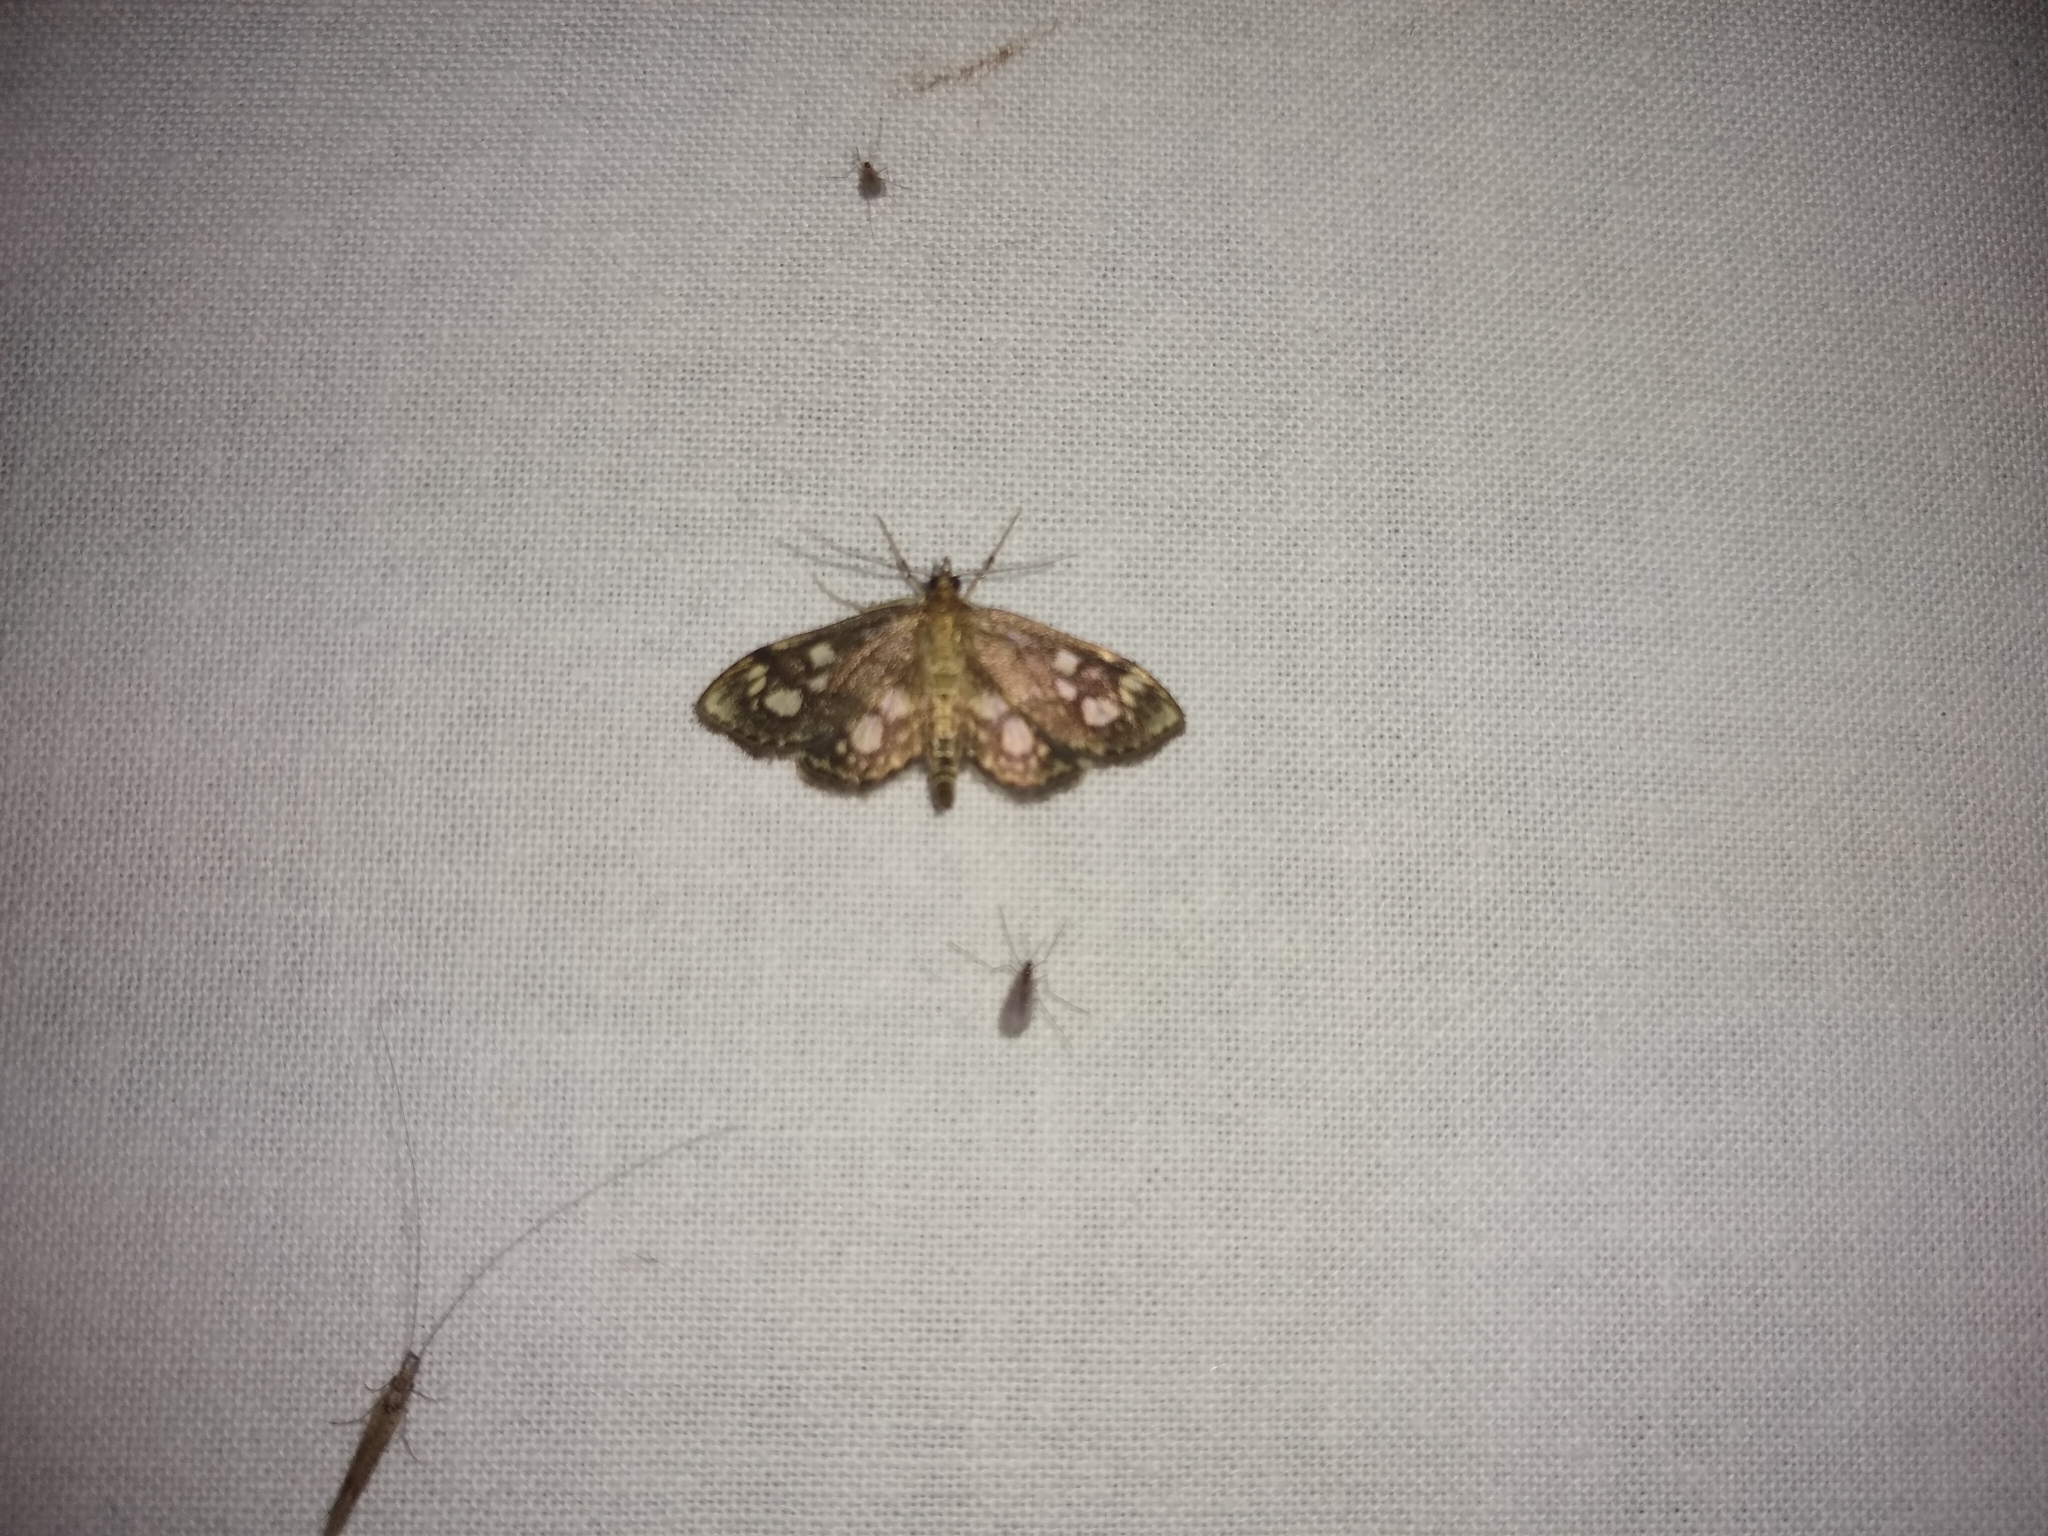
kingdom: Animalia
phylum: Arthropoda
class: Insecta
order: Lepidoptera
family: Crambidae
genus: Anania
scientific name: Anania coronata
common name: Elder pearl
